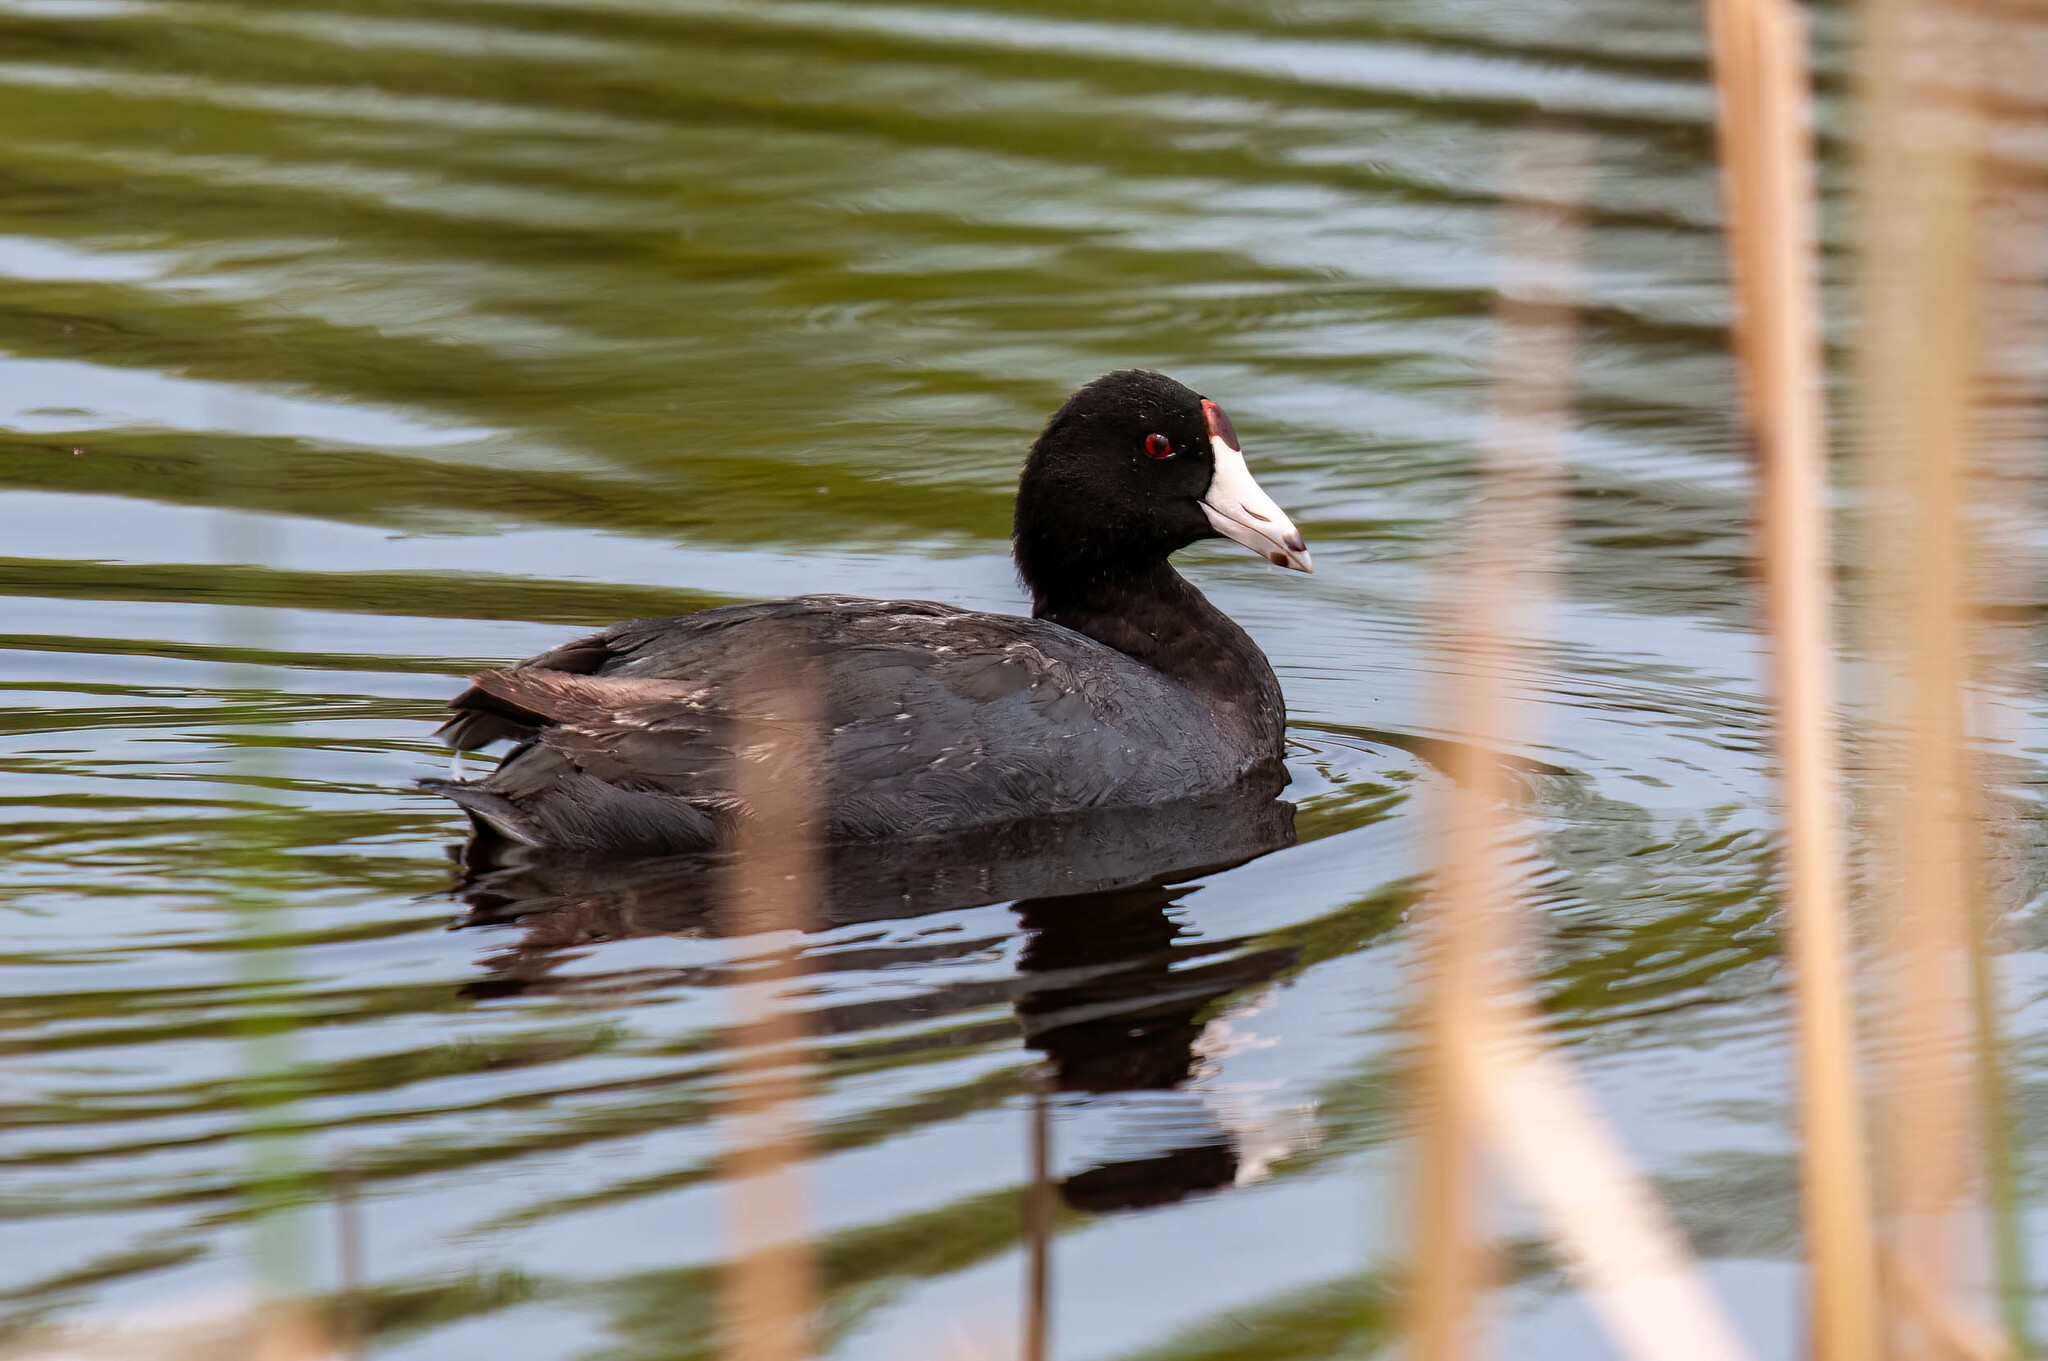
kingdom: Animalia
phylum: Chordata
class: Aves
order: Gruiformes
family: Rallidae
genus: Fulica
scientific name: Fulica americana
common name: American coot
